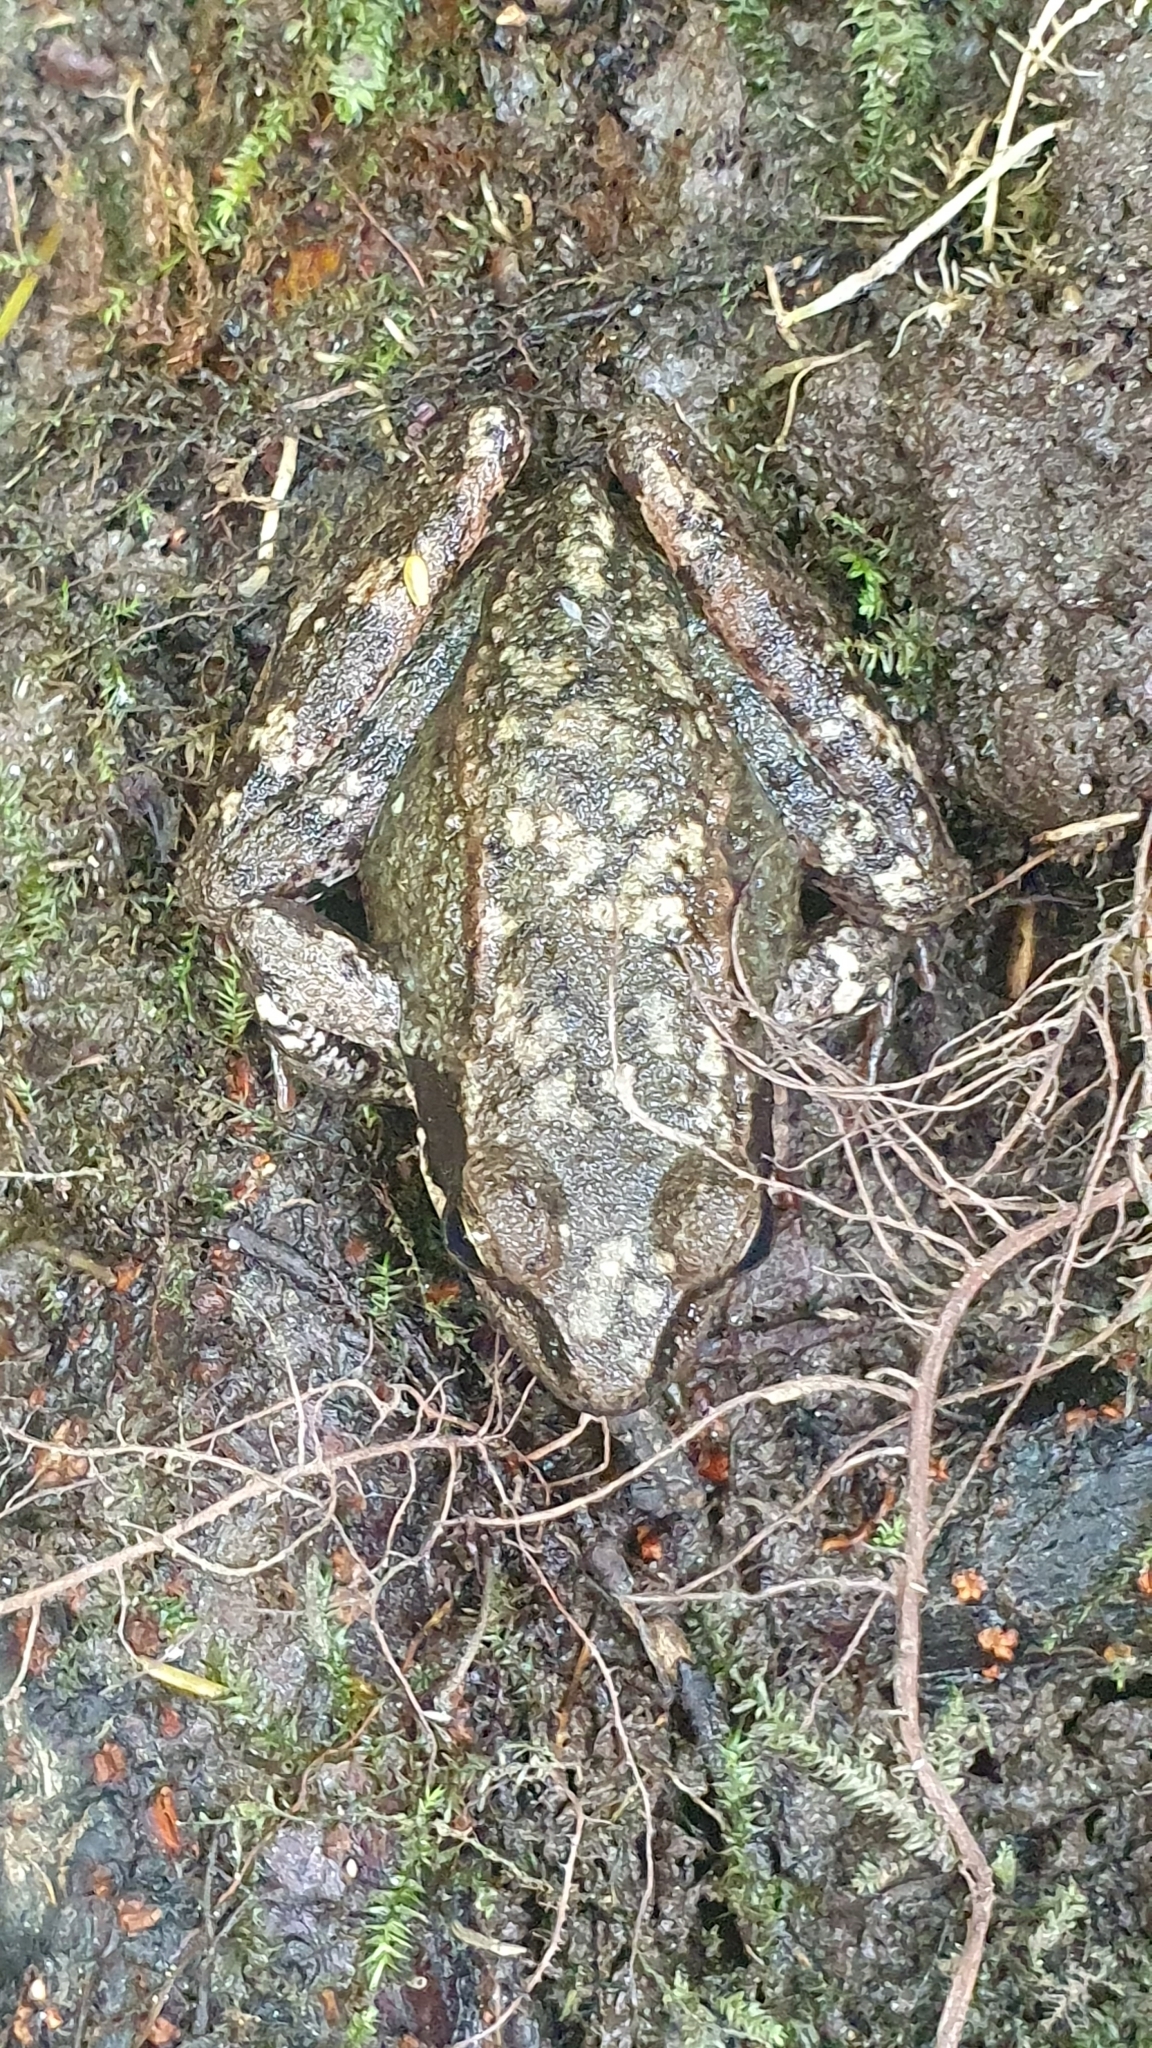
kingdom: Animalia
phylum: Chordata
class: Amphibia
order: Anura
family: Ranidae
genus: Rana
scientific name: Rana iberica
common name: Iberian frog
